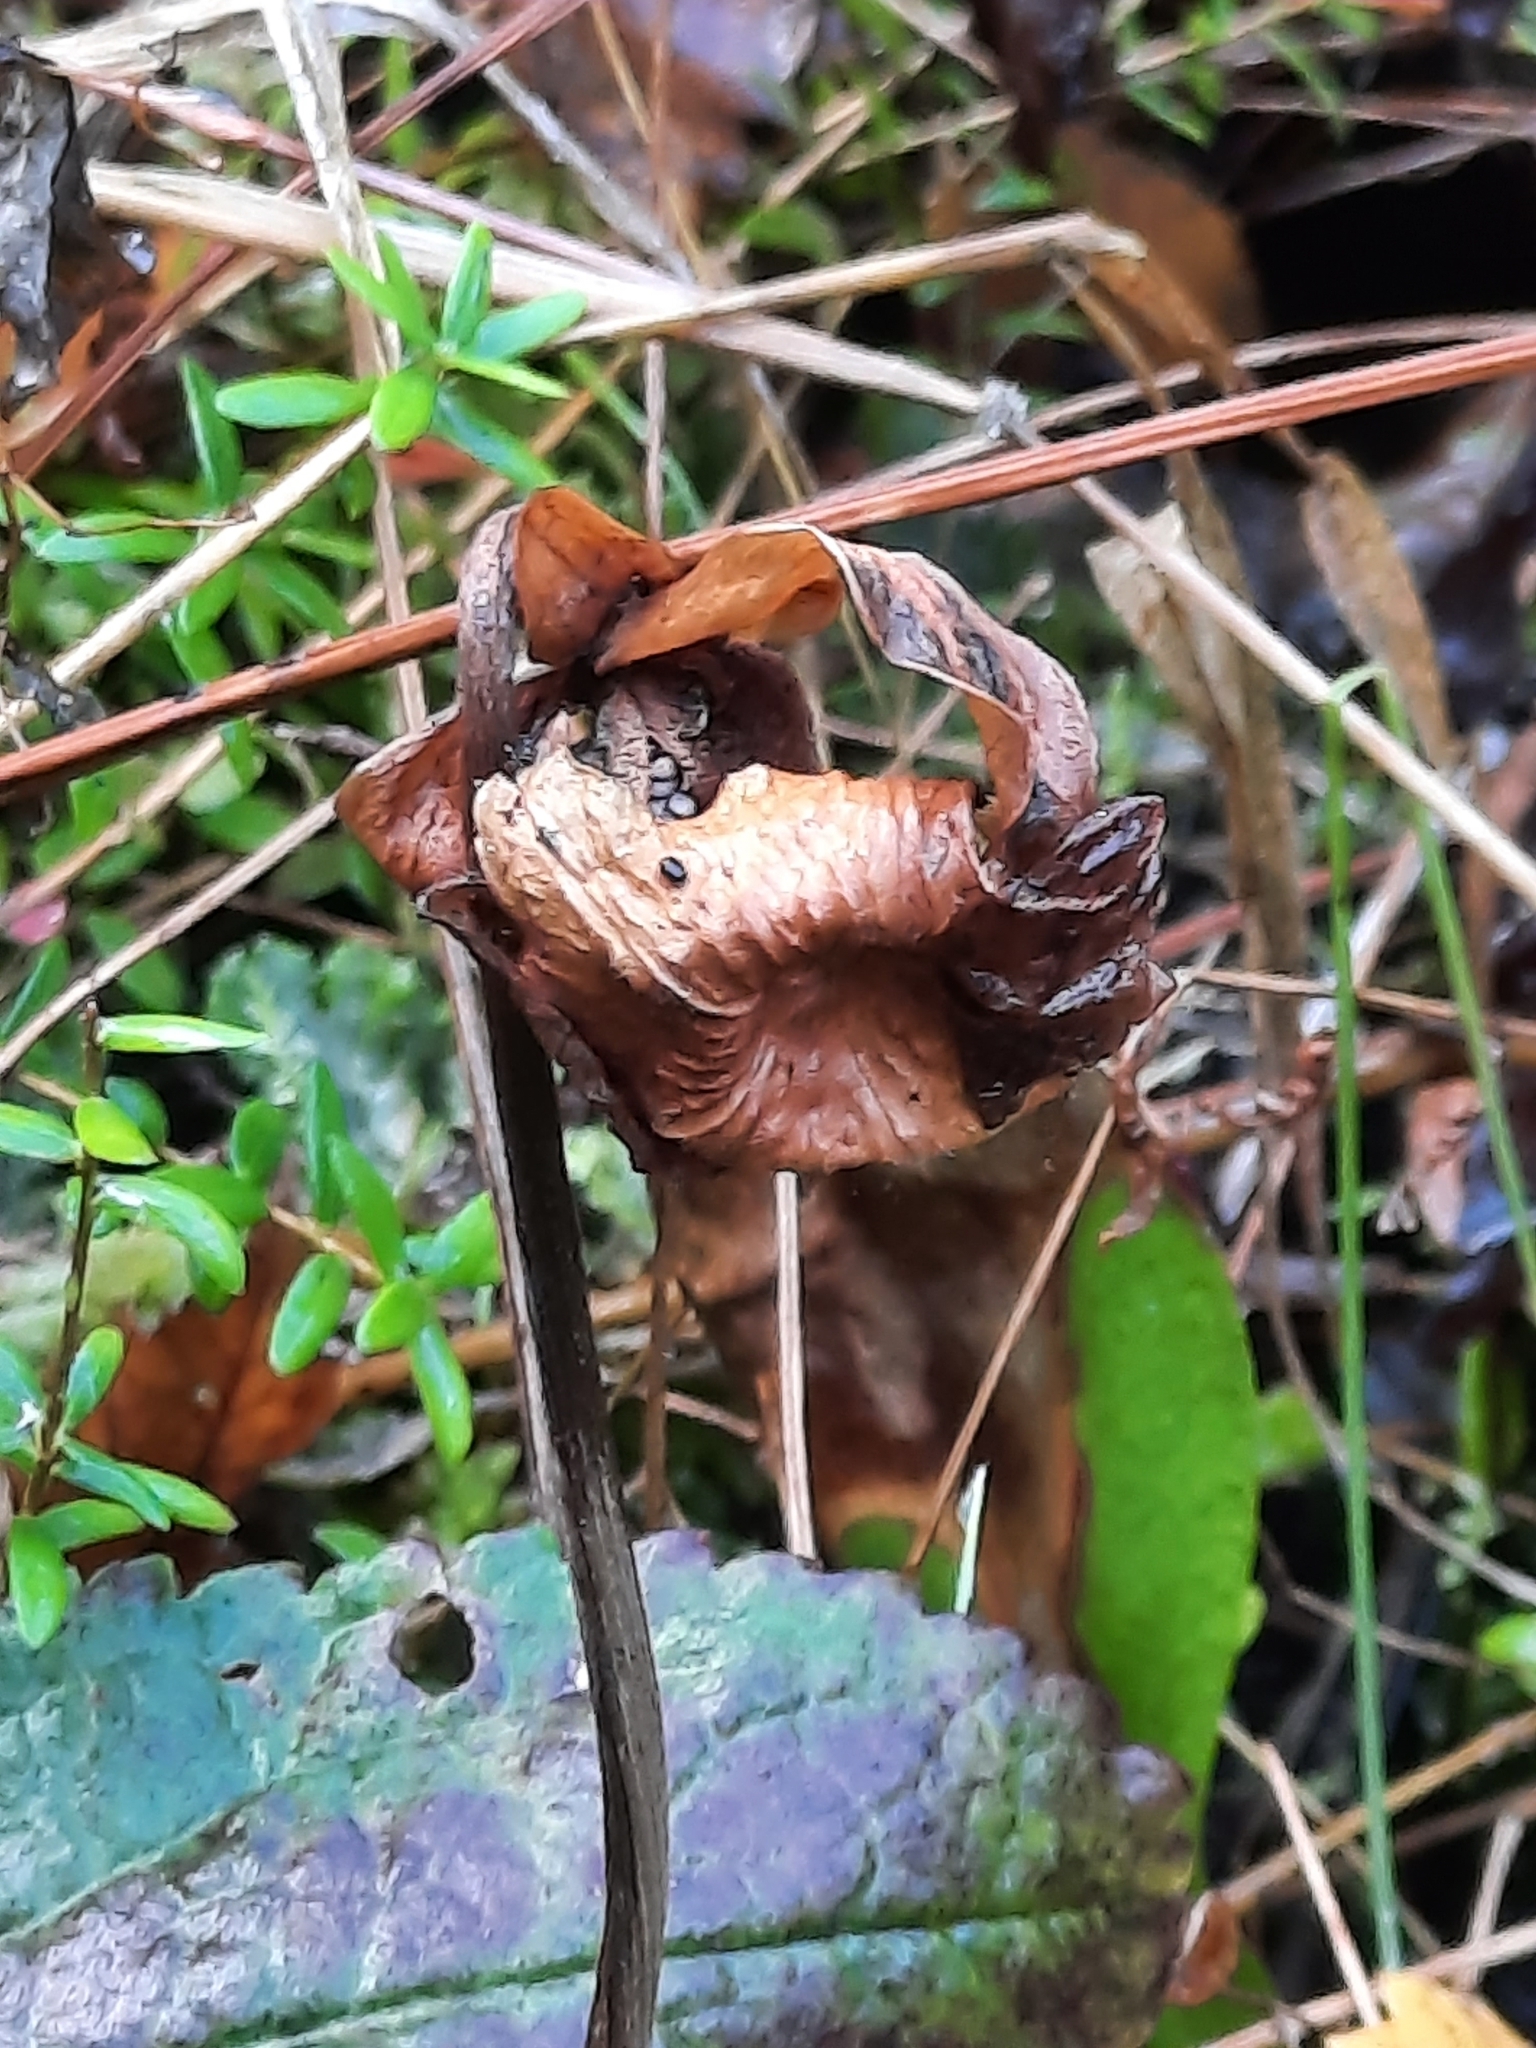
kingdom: Plantae
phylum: Tracheophyta
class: Magnoliopsida
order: Ericales
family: Sarraceniaceae
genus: Sarracenia
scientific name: Sarracenia purpurea
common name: Pitcherplant
